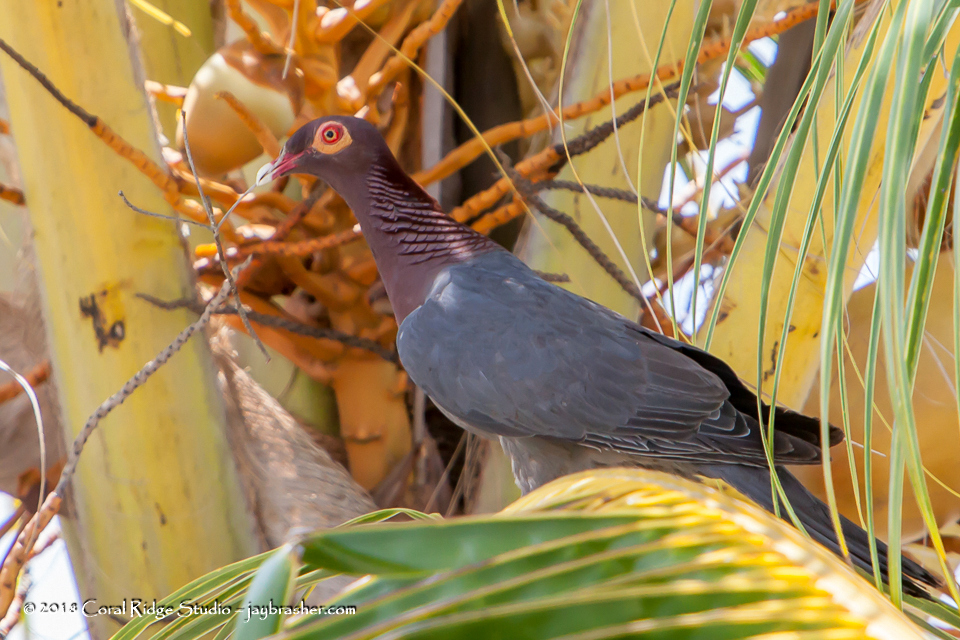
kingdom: Animalia
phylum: Chordata
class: Aves
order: Columbiformes
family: Columbidae
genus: Patagioenas
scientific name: Patagioenas squamosa
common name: Scaly-naped pigeon
